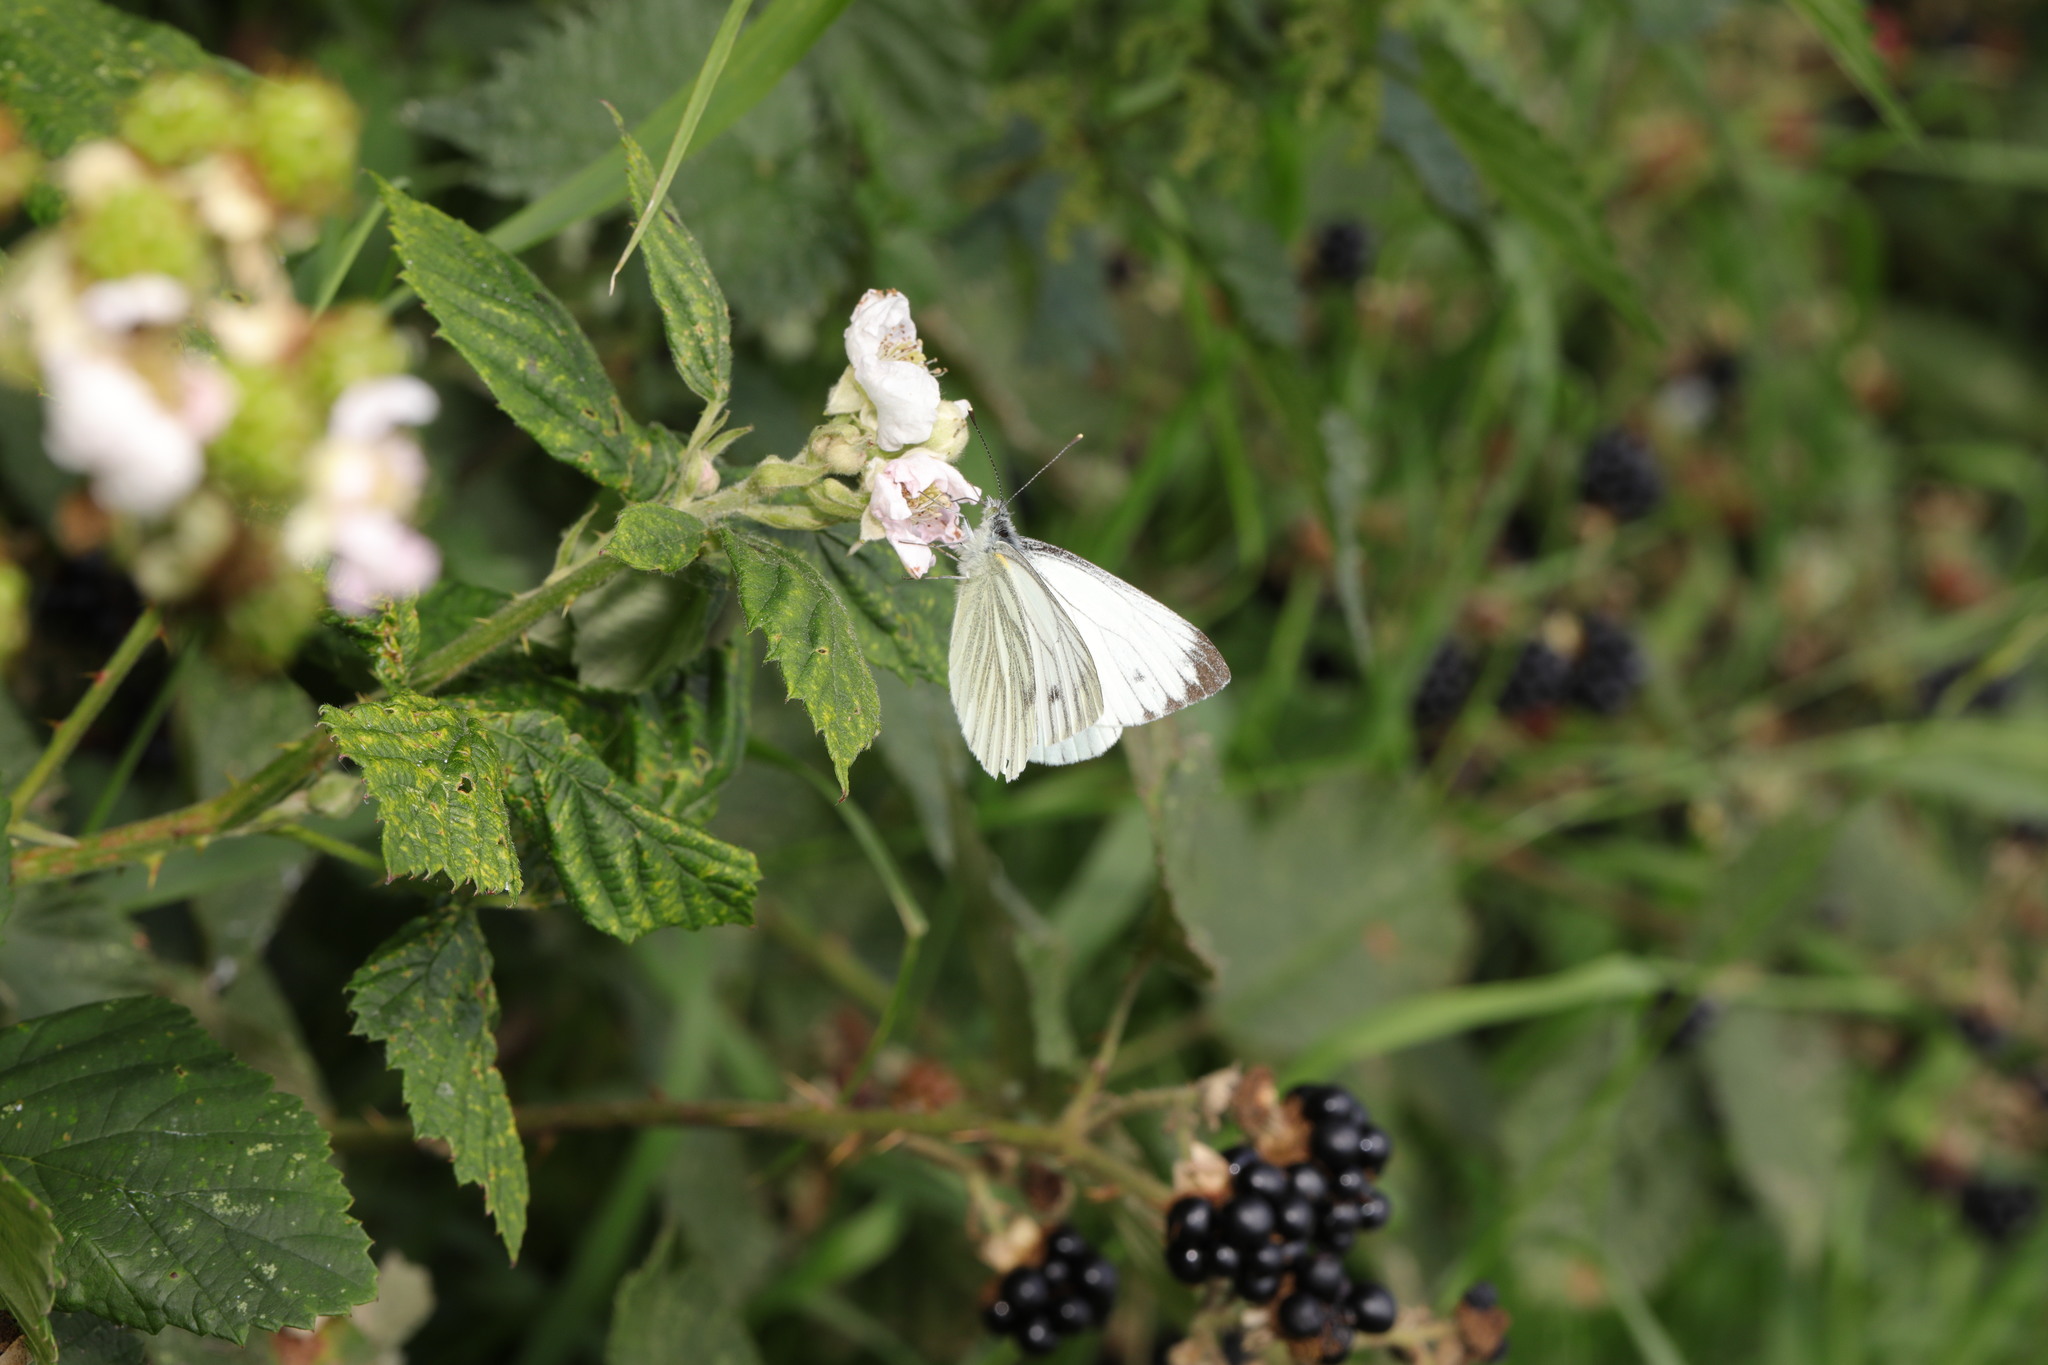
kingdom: Animalia
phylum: Arthropoda
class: Insecta
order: Lepidoptera
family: Pieridae
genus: Pieris
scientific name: Pieris napi
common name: Green-veined white
